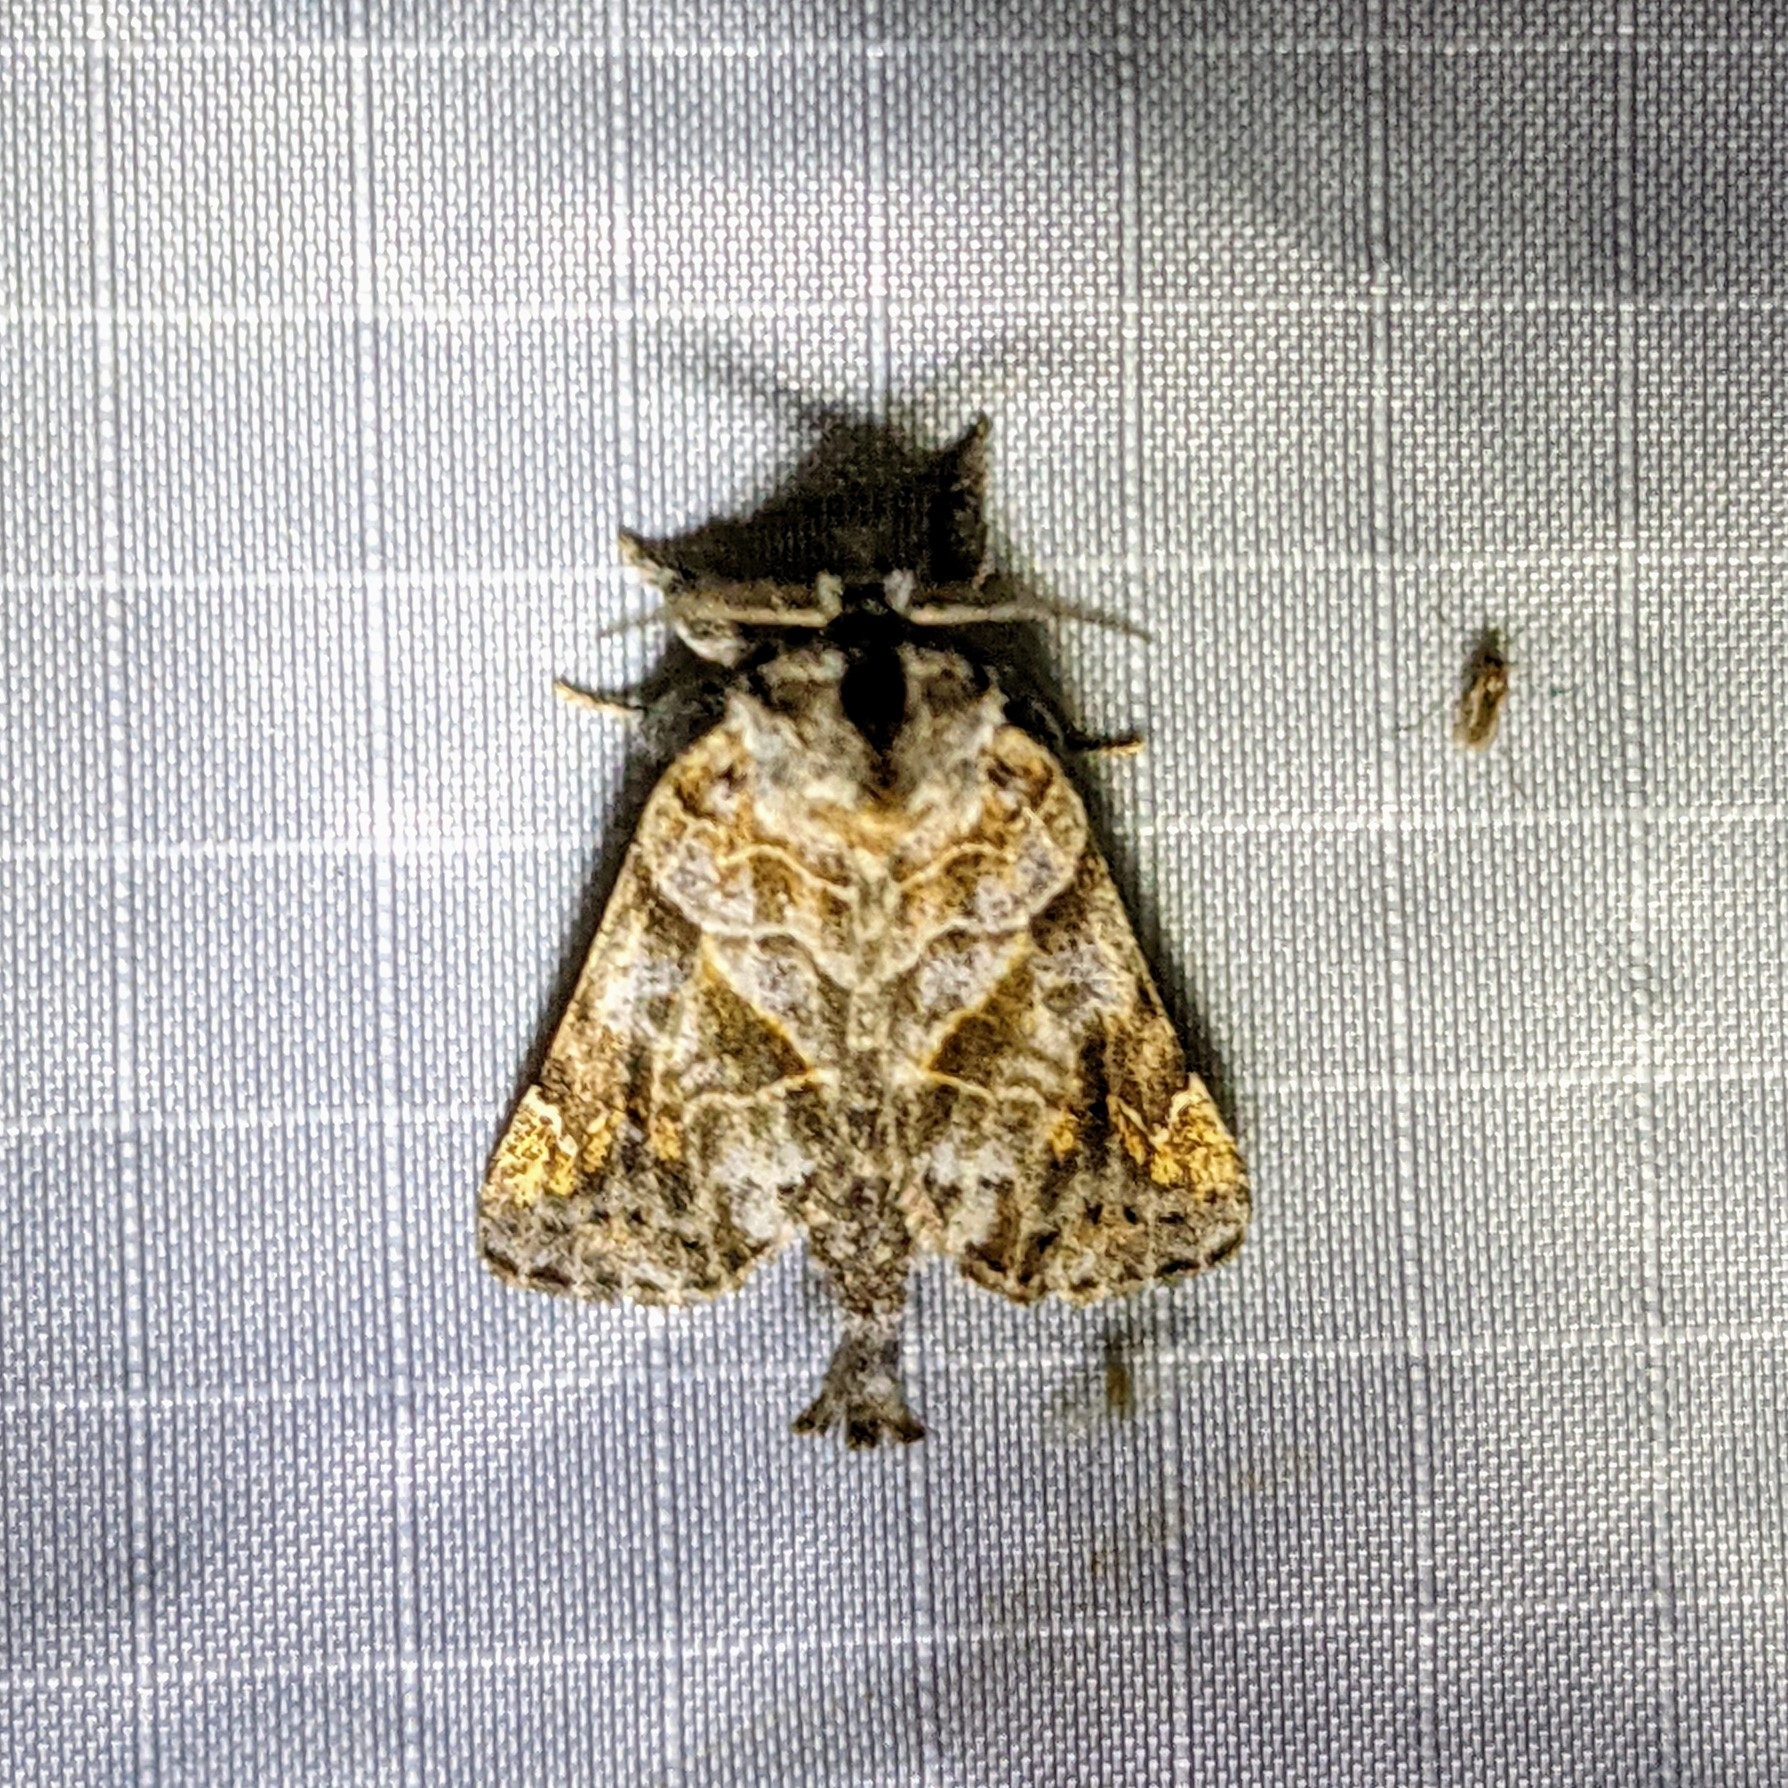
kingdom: Animalia
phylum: Arthropoda
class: Insecta
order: Lepidoptera
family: Notodontidae
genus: Clostera
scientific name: Clostera strigosa
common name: Striped chocolate-tip moth
